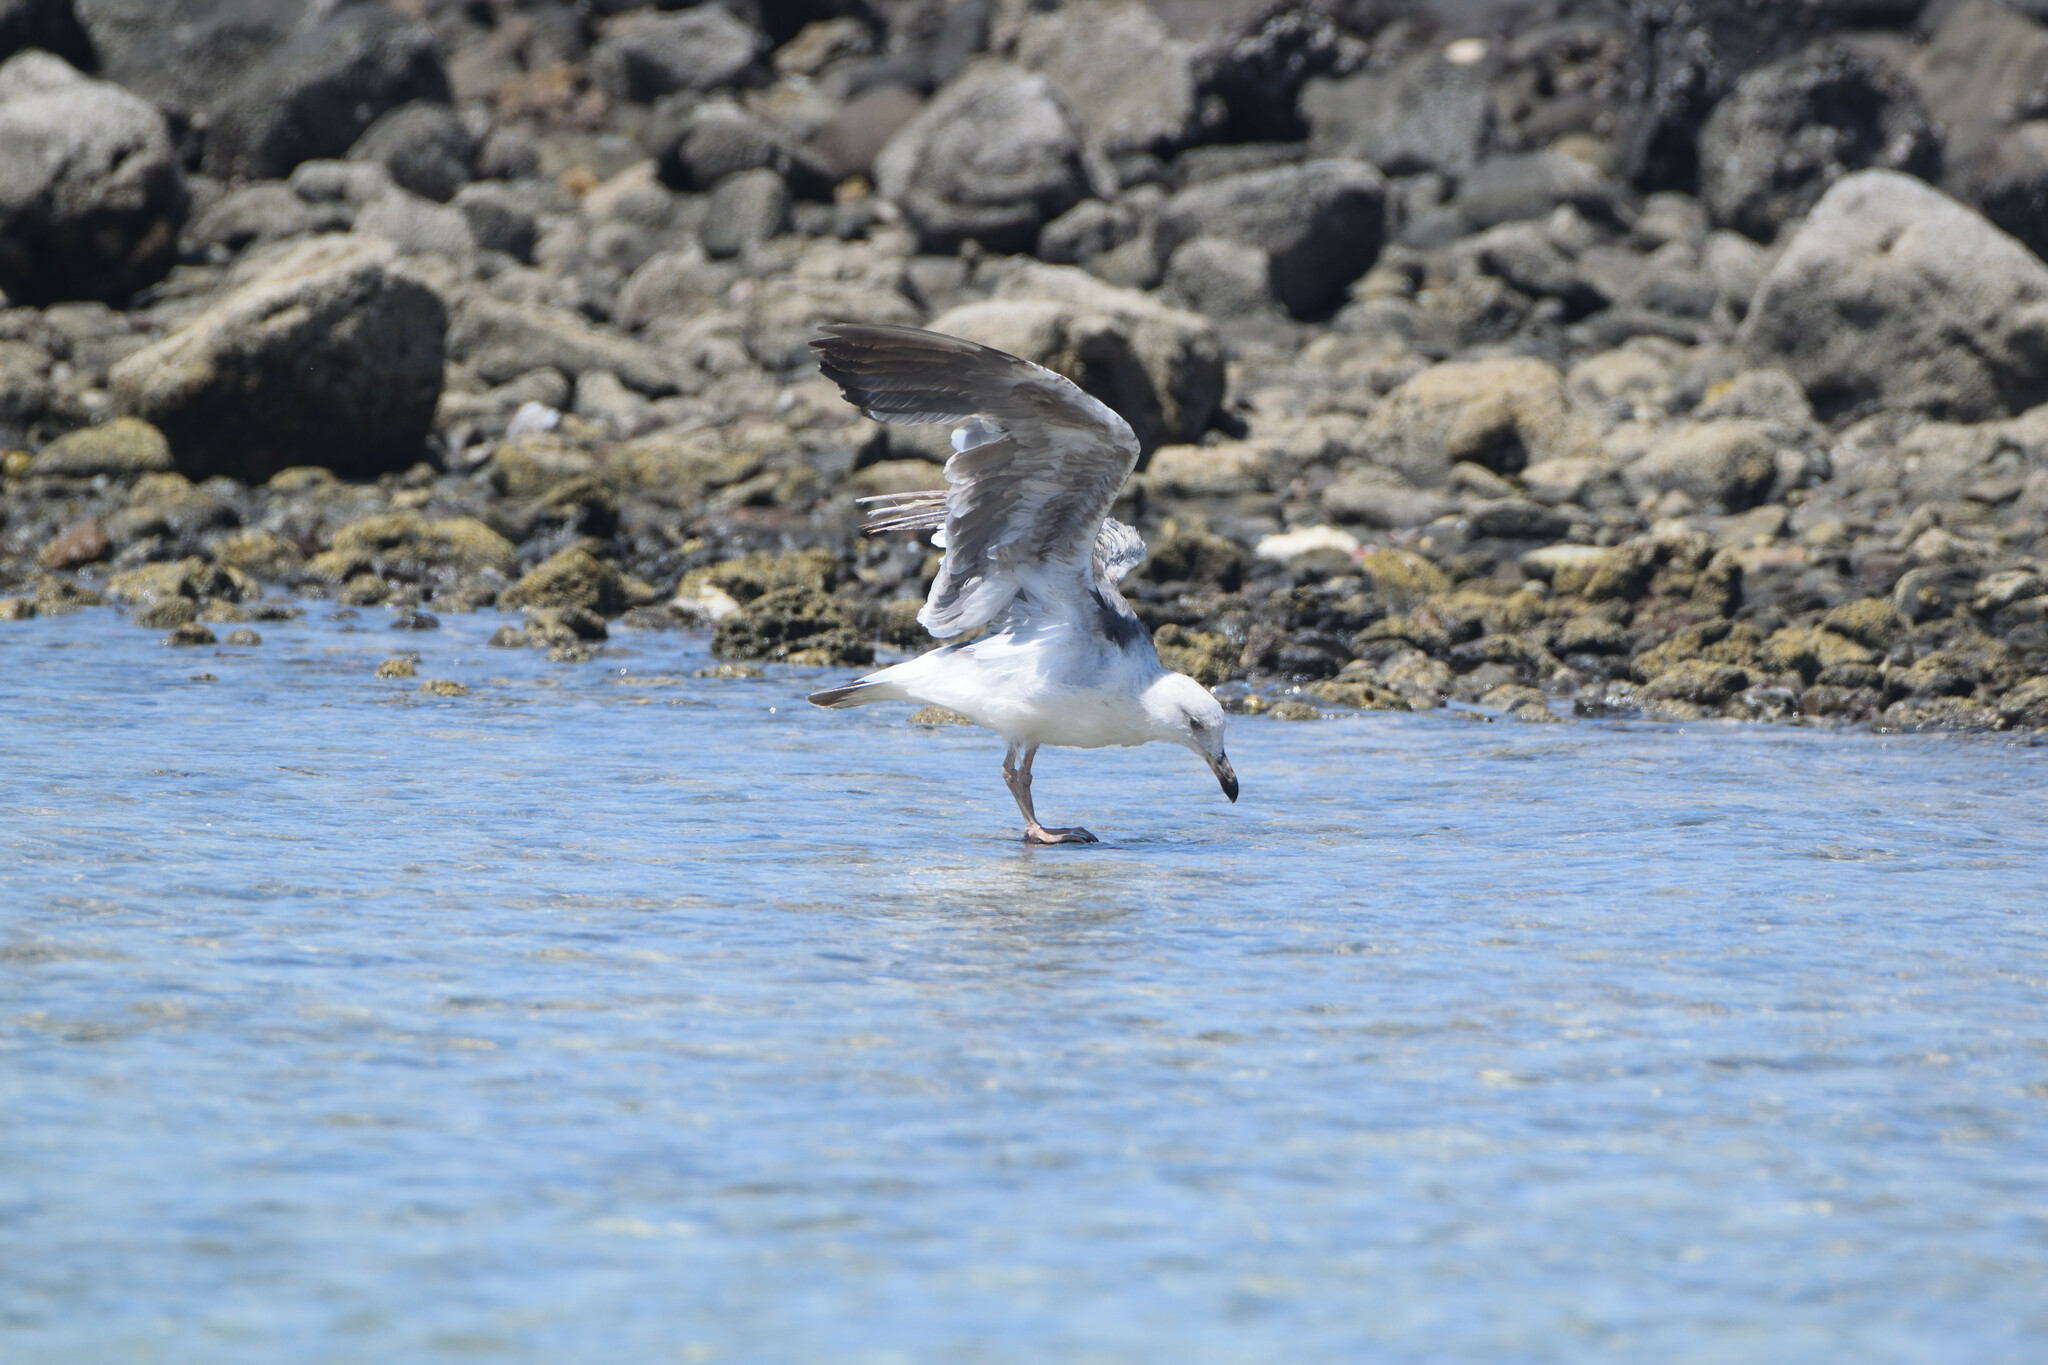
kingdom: Animalia
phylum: Chordata
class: Aves
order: Charadriiformes
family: Laridae
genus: Larus
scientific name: Larus occidentalis
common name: Western gull
